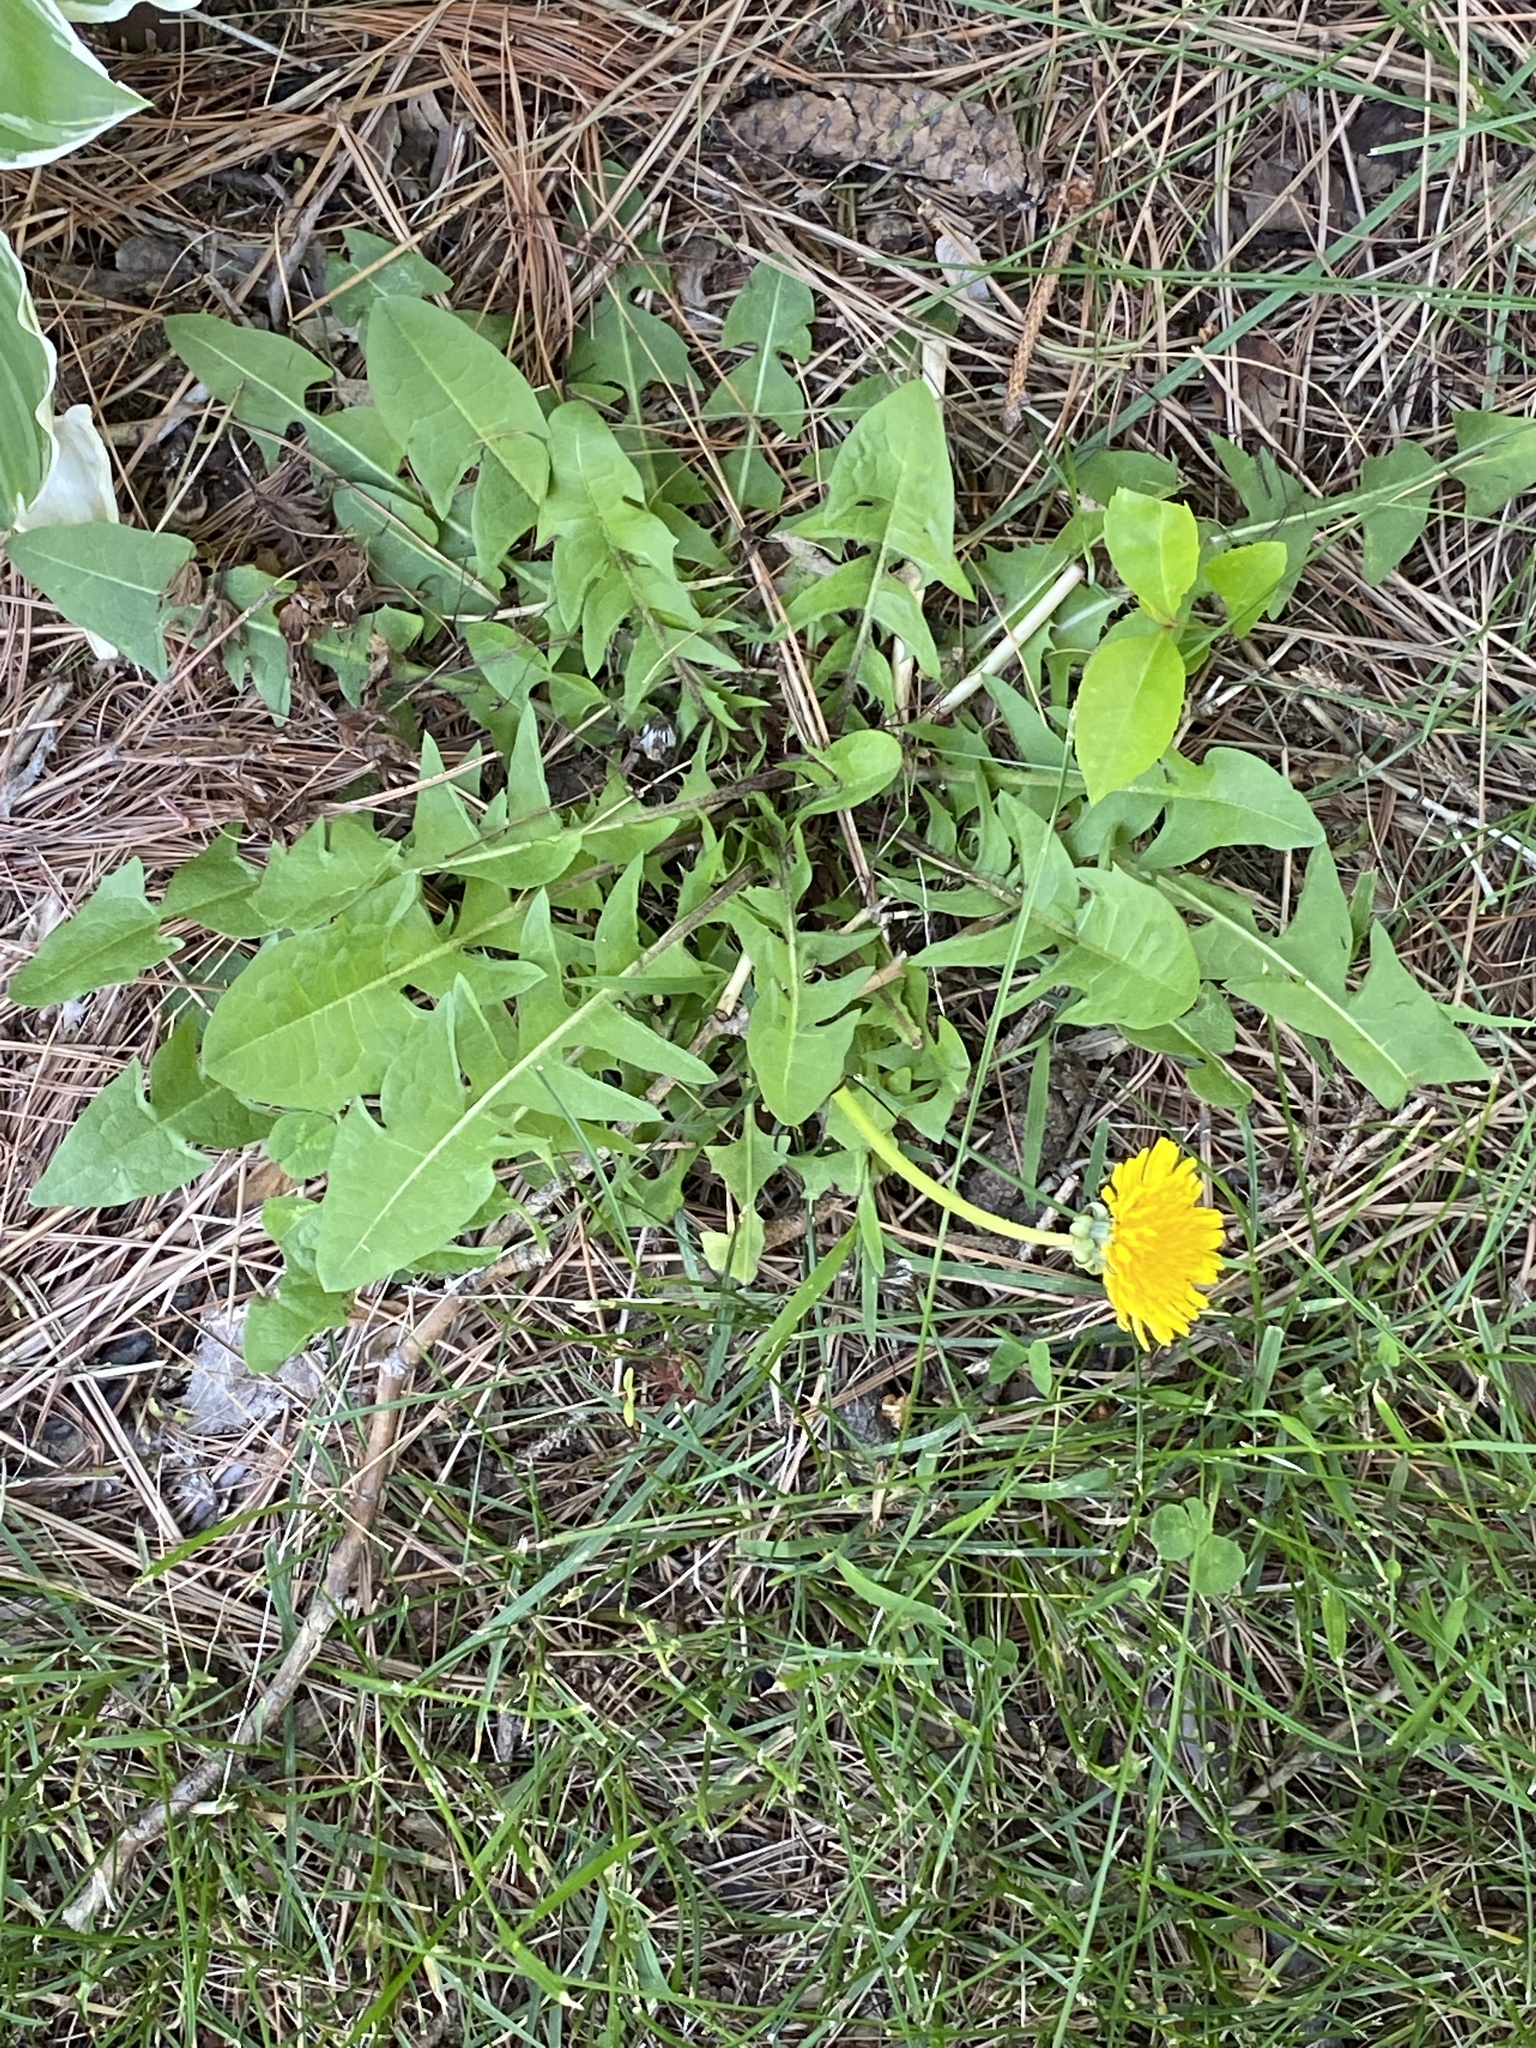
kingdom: Plantae
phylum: Tracheophyta
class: Magnoliopsida
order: Asterales
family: Asteraceae
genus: Taraxacum
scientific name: Taraxacum officinale
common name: Common dandelion
